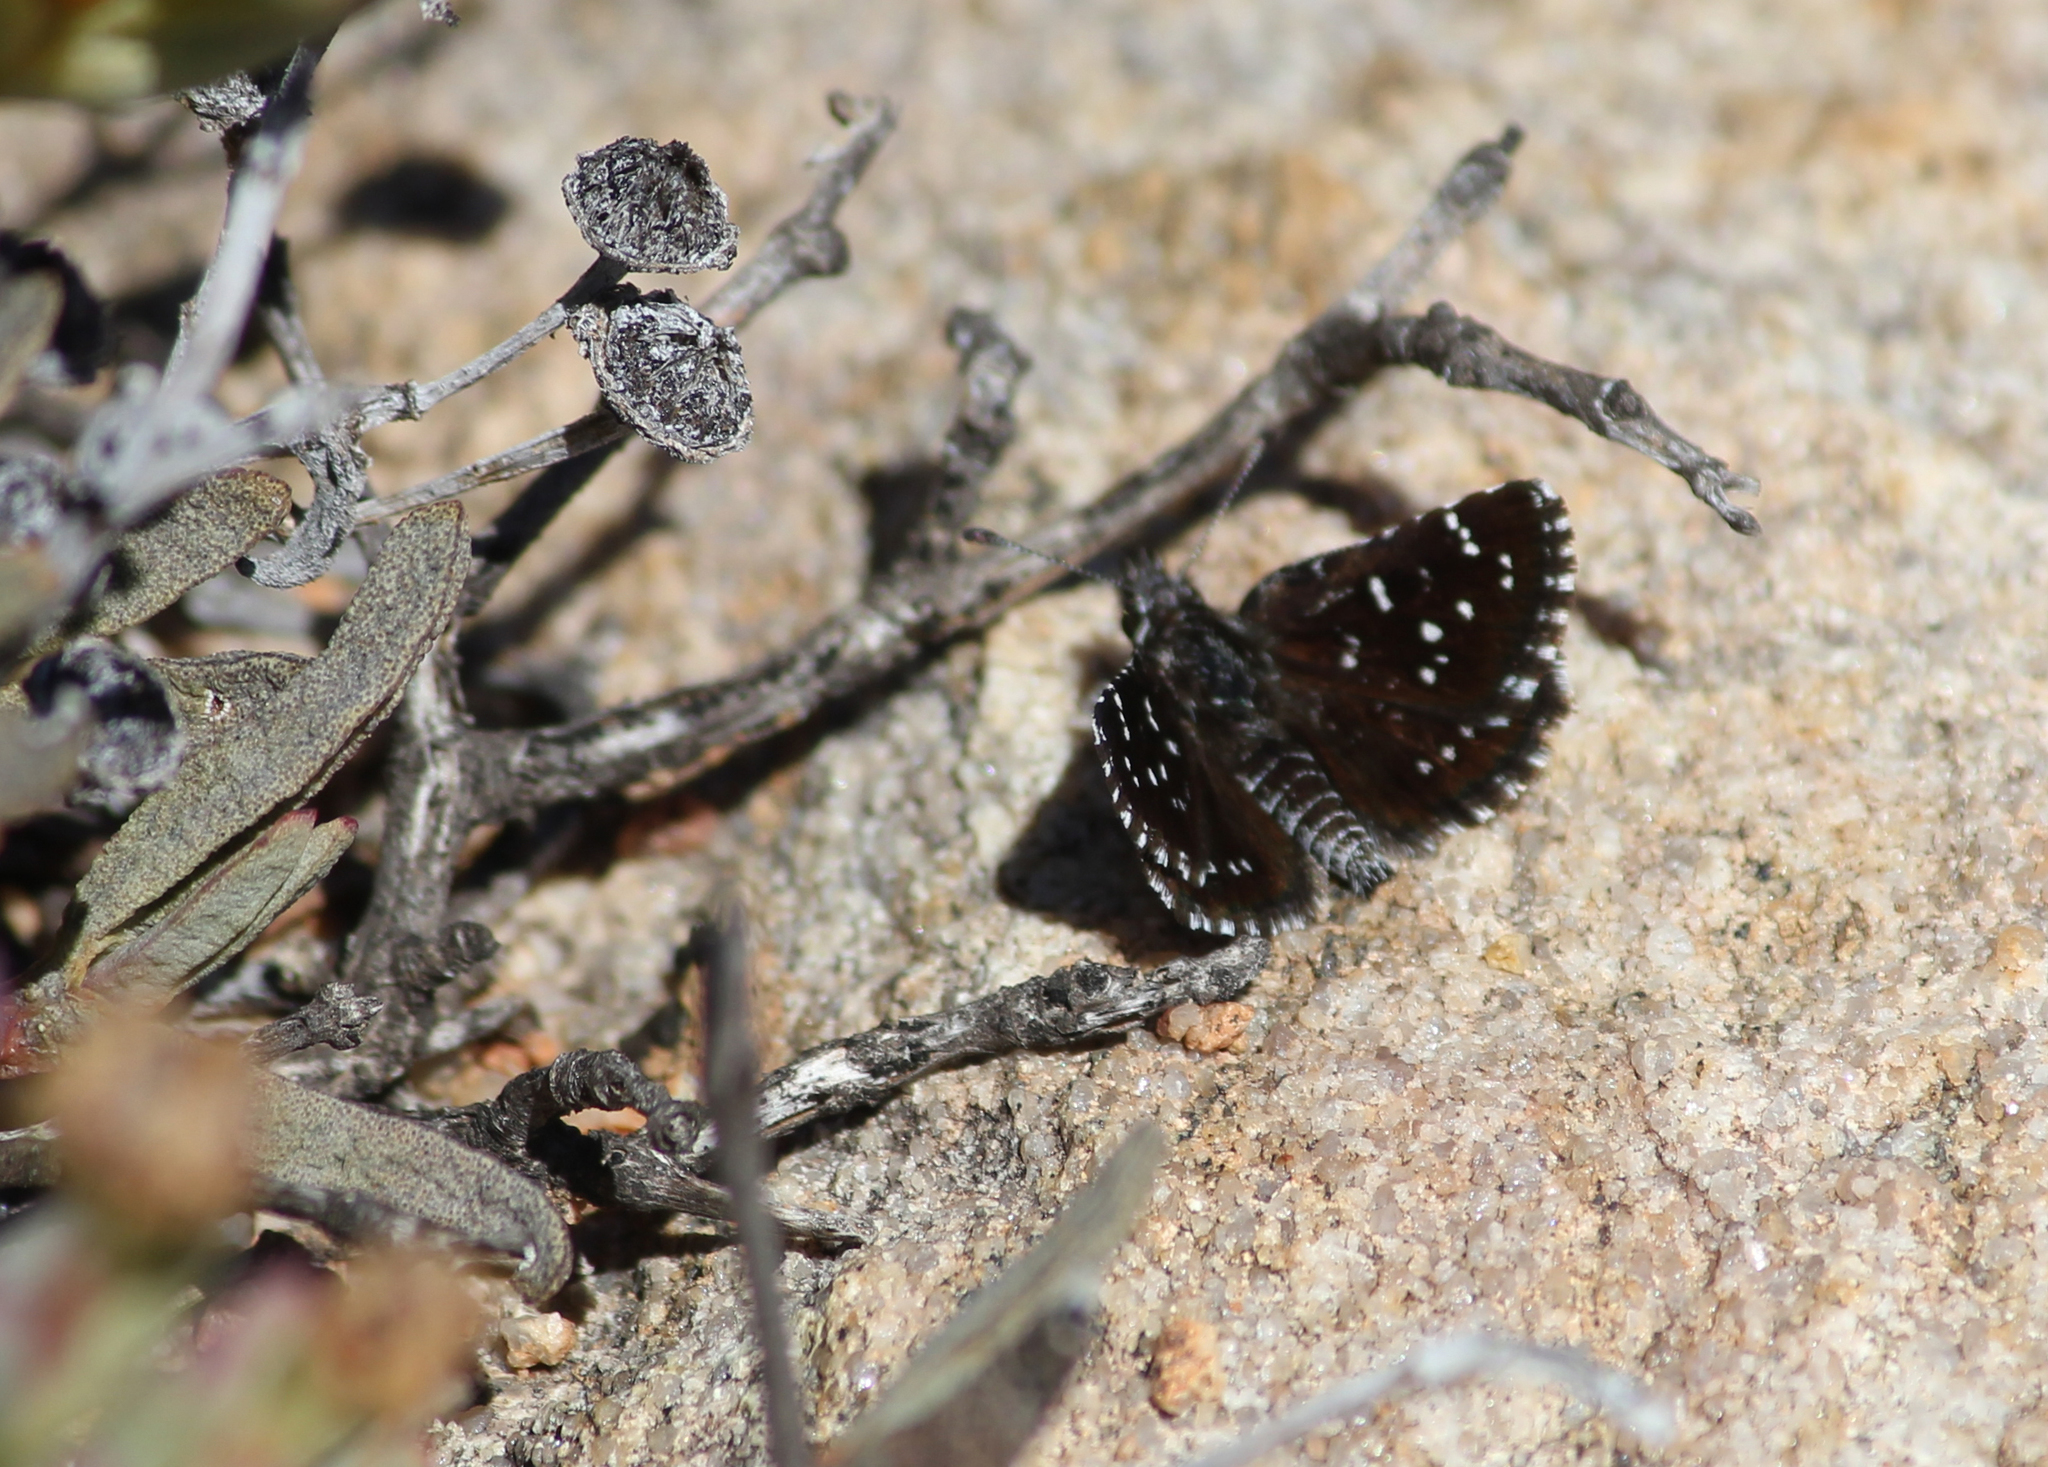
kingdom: Animalia
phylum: Arthropoda
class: Insecta
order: Lepidoptera
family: Hesperiidae
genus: Alenia
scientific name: Alenia namaqua
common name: Namaqua dancer
